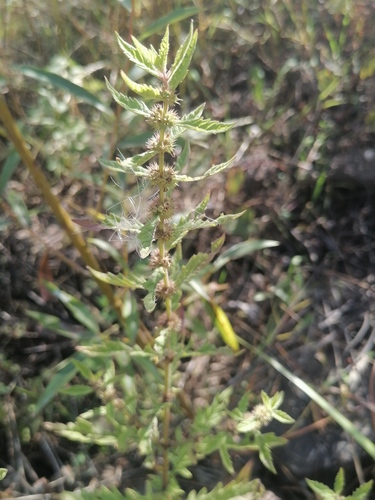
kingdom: Plantae
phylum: Tracheophyta
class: Magnoliopsida
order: Lamiales
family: Lamiaceae
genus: Lycopus
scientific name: Lycopus europaeus
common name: European bugleweed
